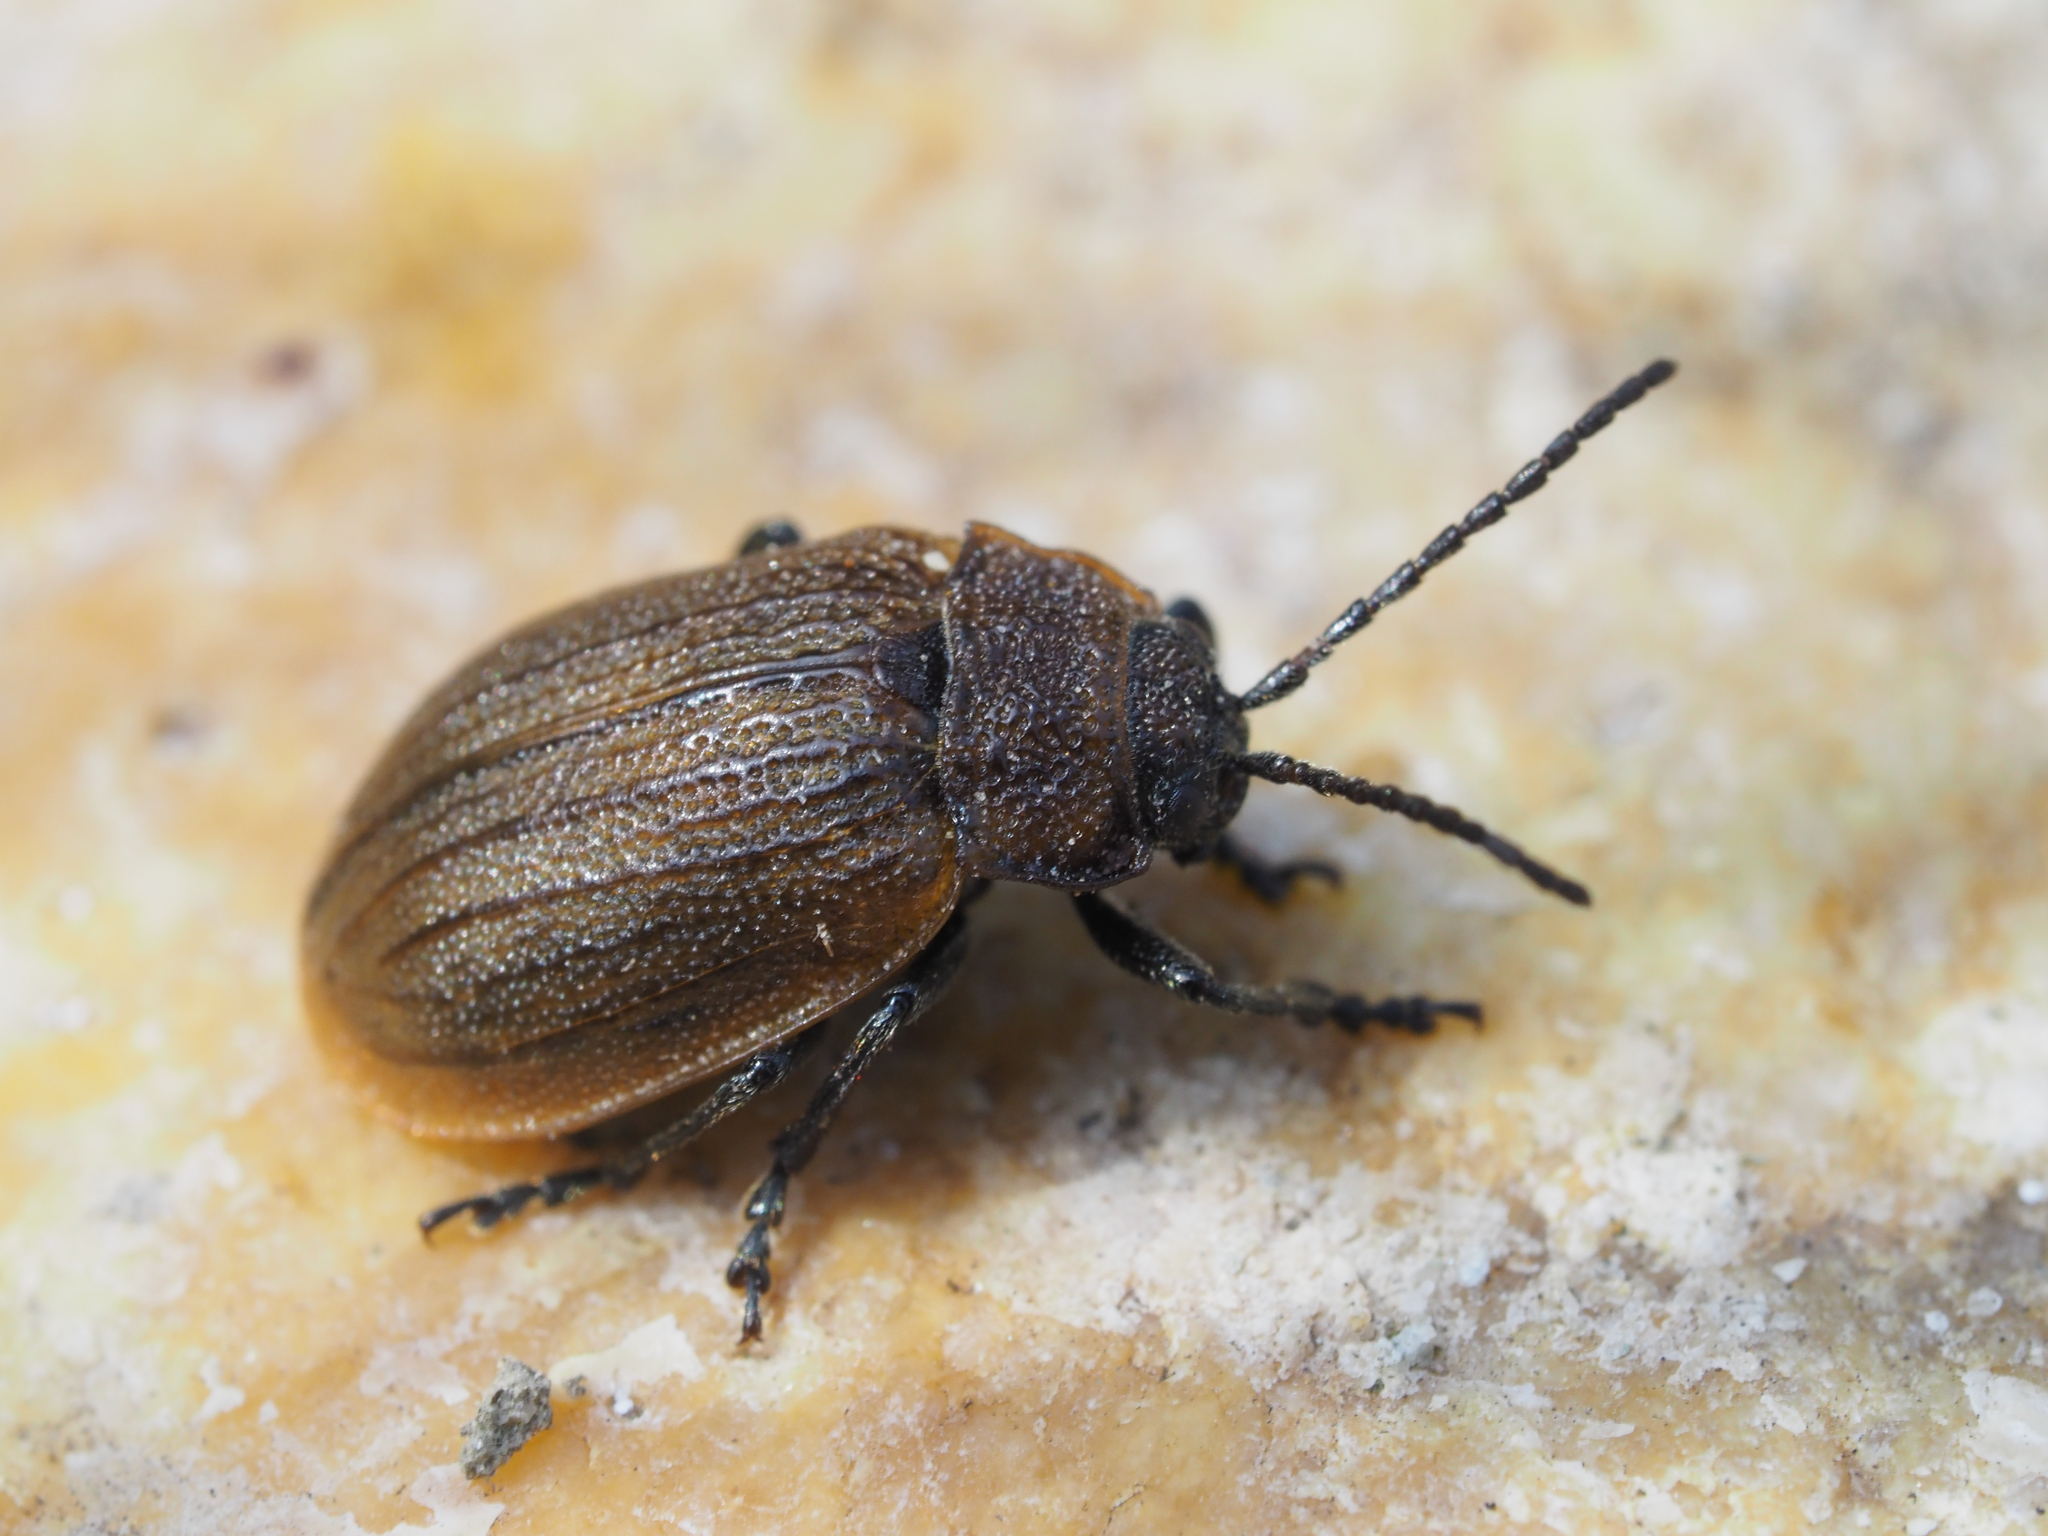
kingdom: Animalia
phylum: Arthropoda
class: Insecta
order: Coleoptera
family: Chrysomelidae
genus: Galeruca
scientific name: Galeruca pomonae
